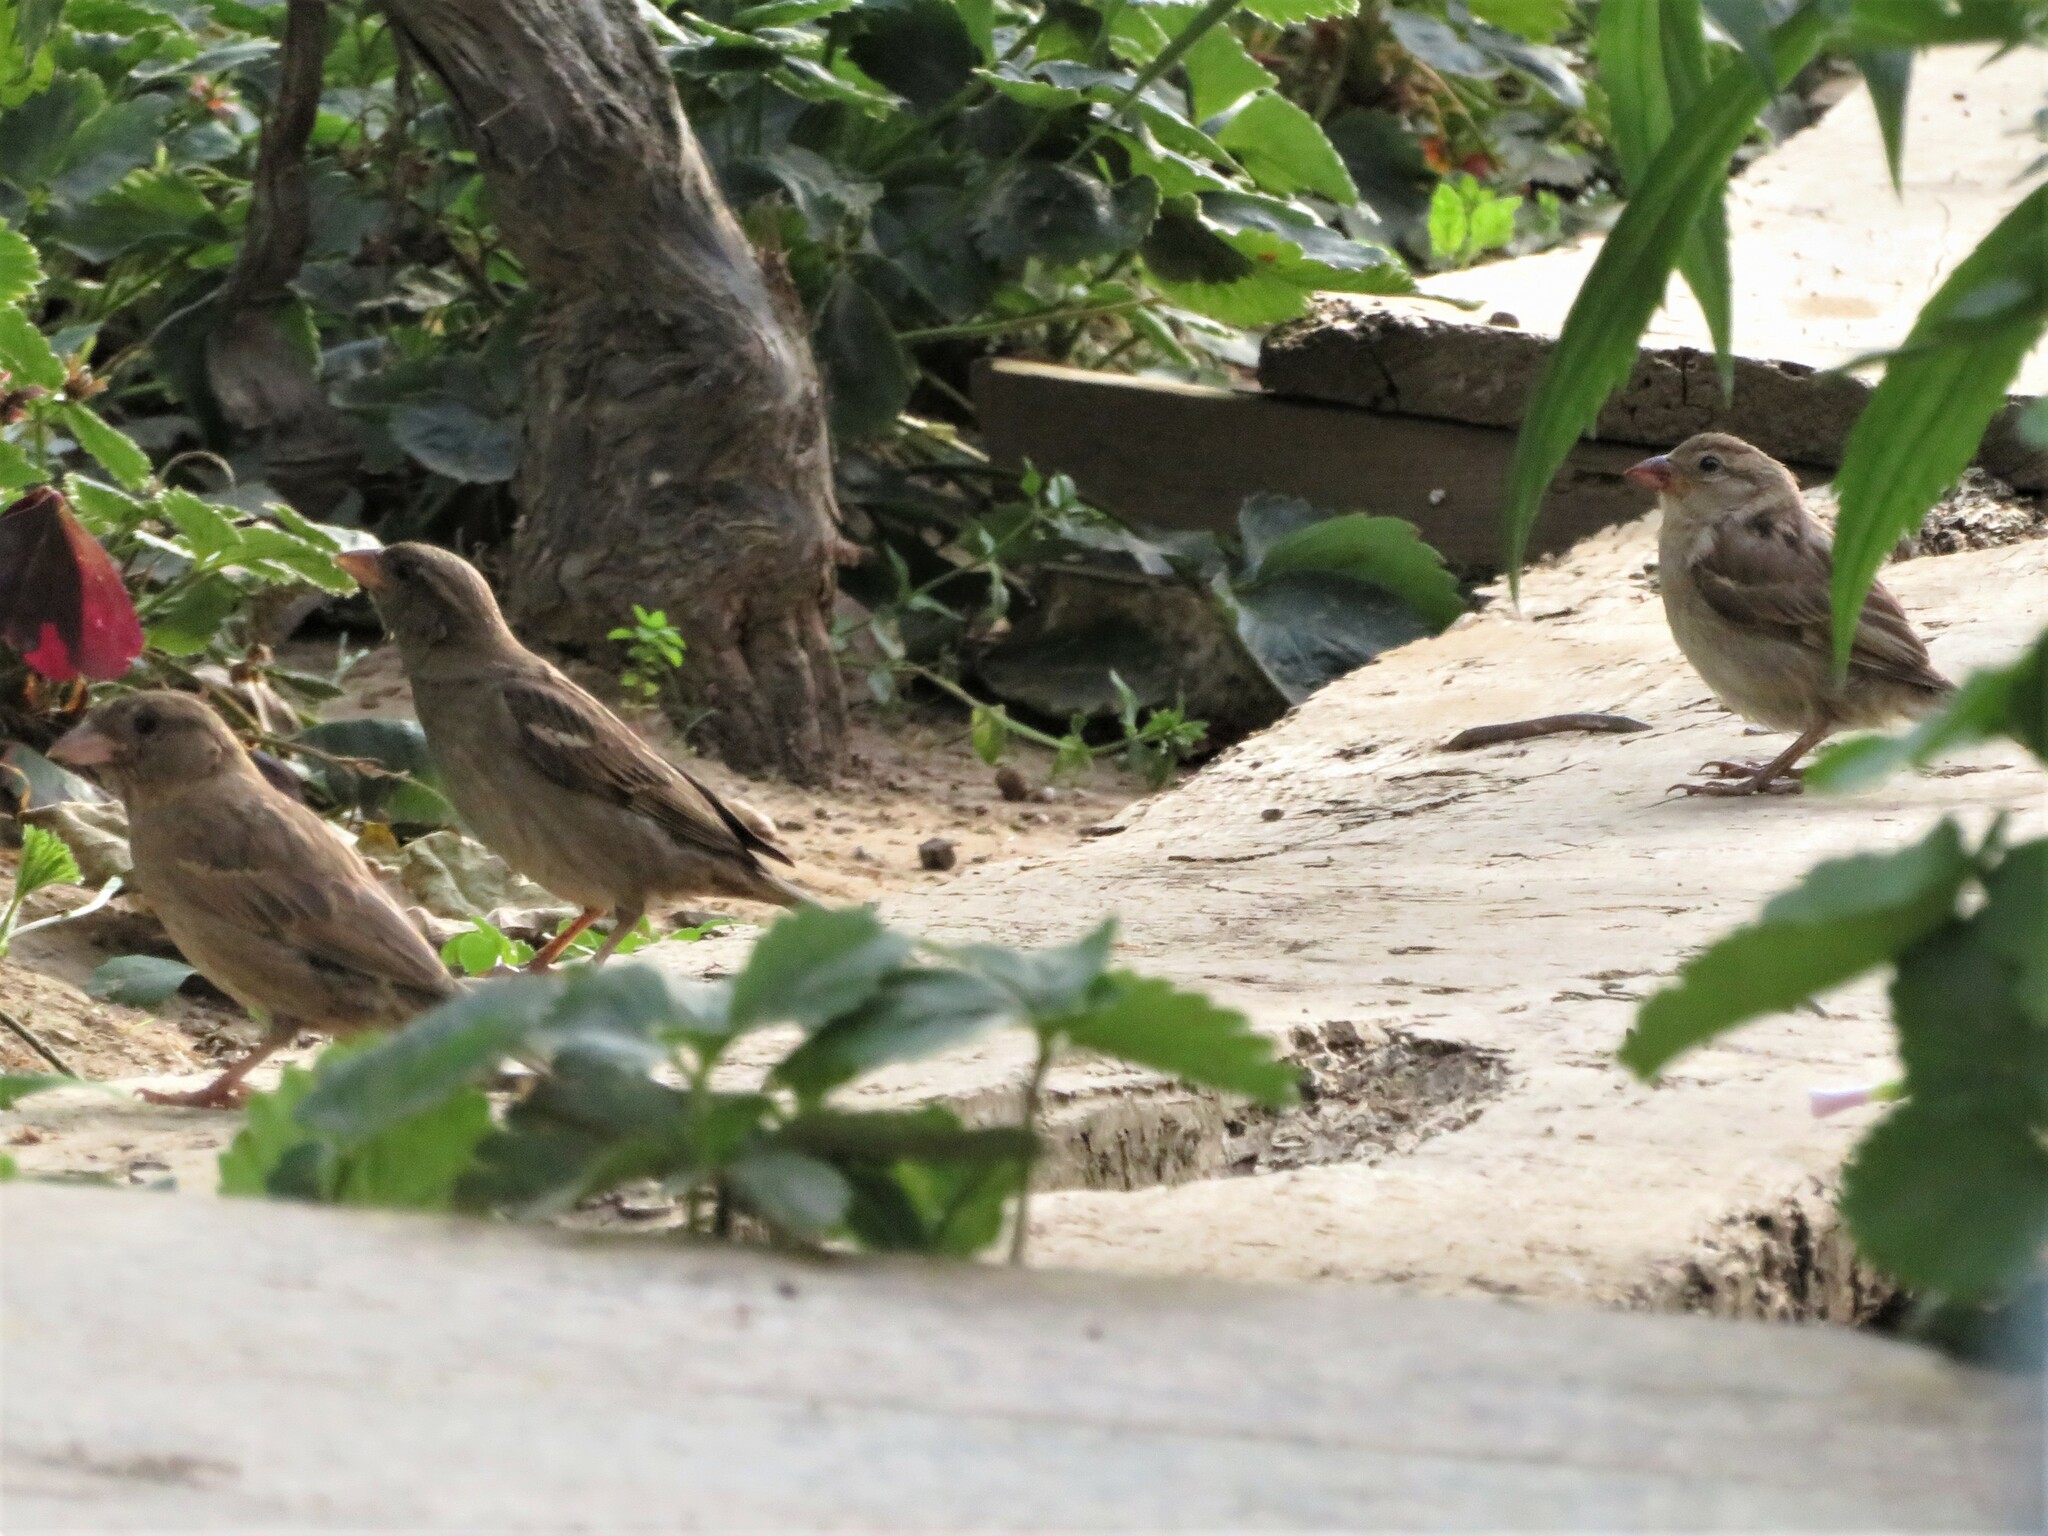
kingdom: Animalia
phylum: Chordata
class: Aves
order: Passeriformes
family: Passeridae
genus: Passer
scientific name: Passer domesticus
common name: House sparrow
